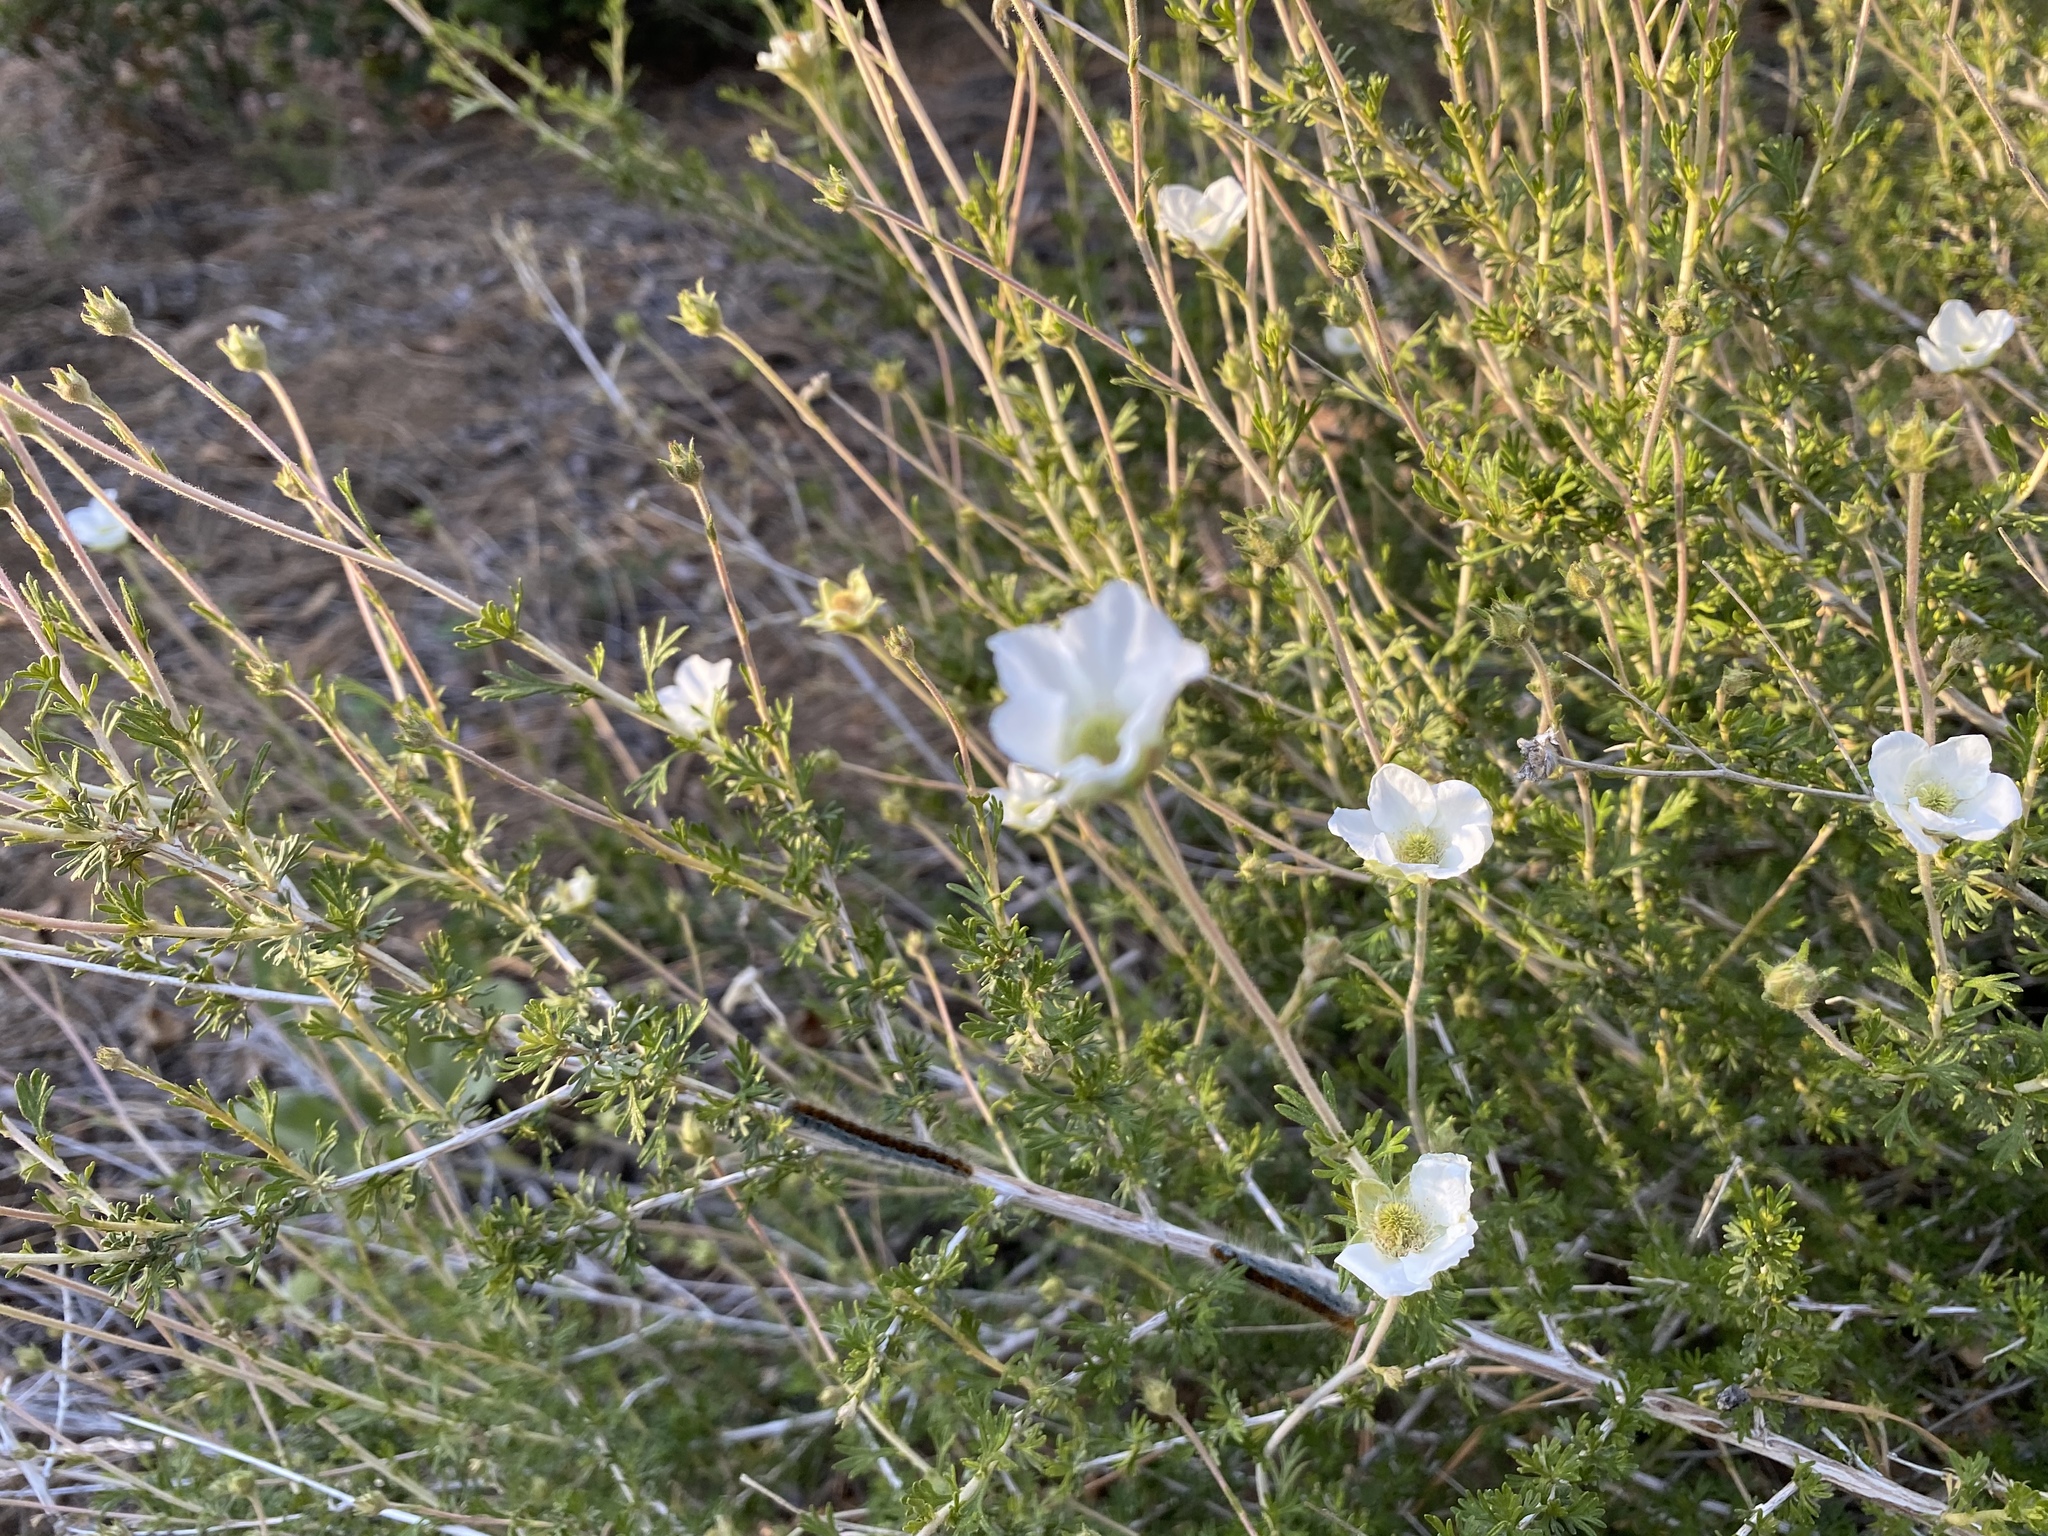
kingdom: Plantae
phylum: Tracheophyta
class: Magnoliopsida
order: Rosales
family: Rosaceae
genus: Fallugia
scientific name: Fallugia paradoxa
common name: Apache-plume
